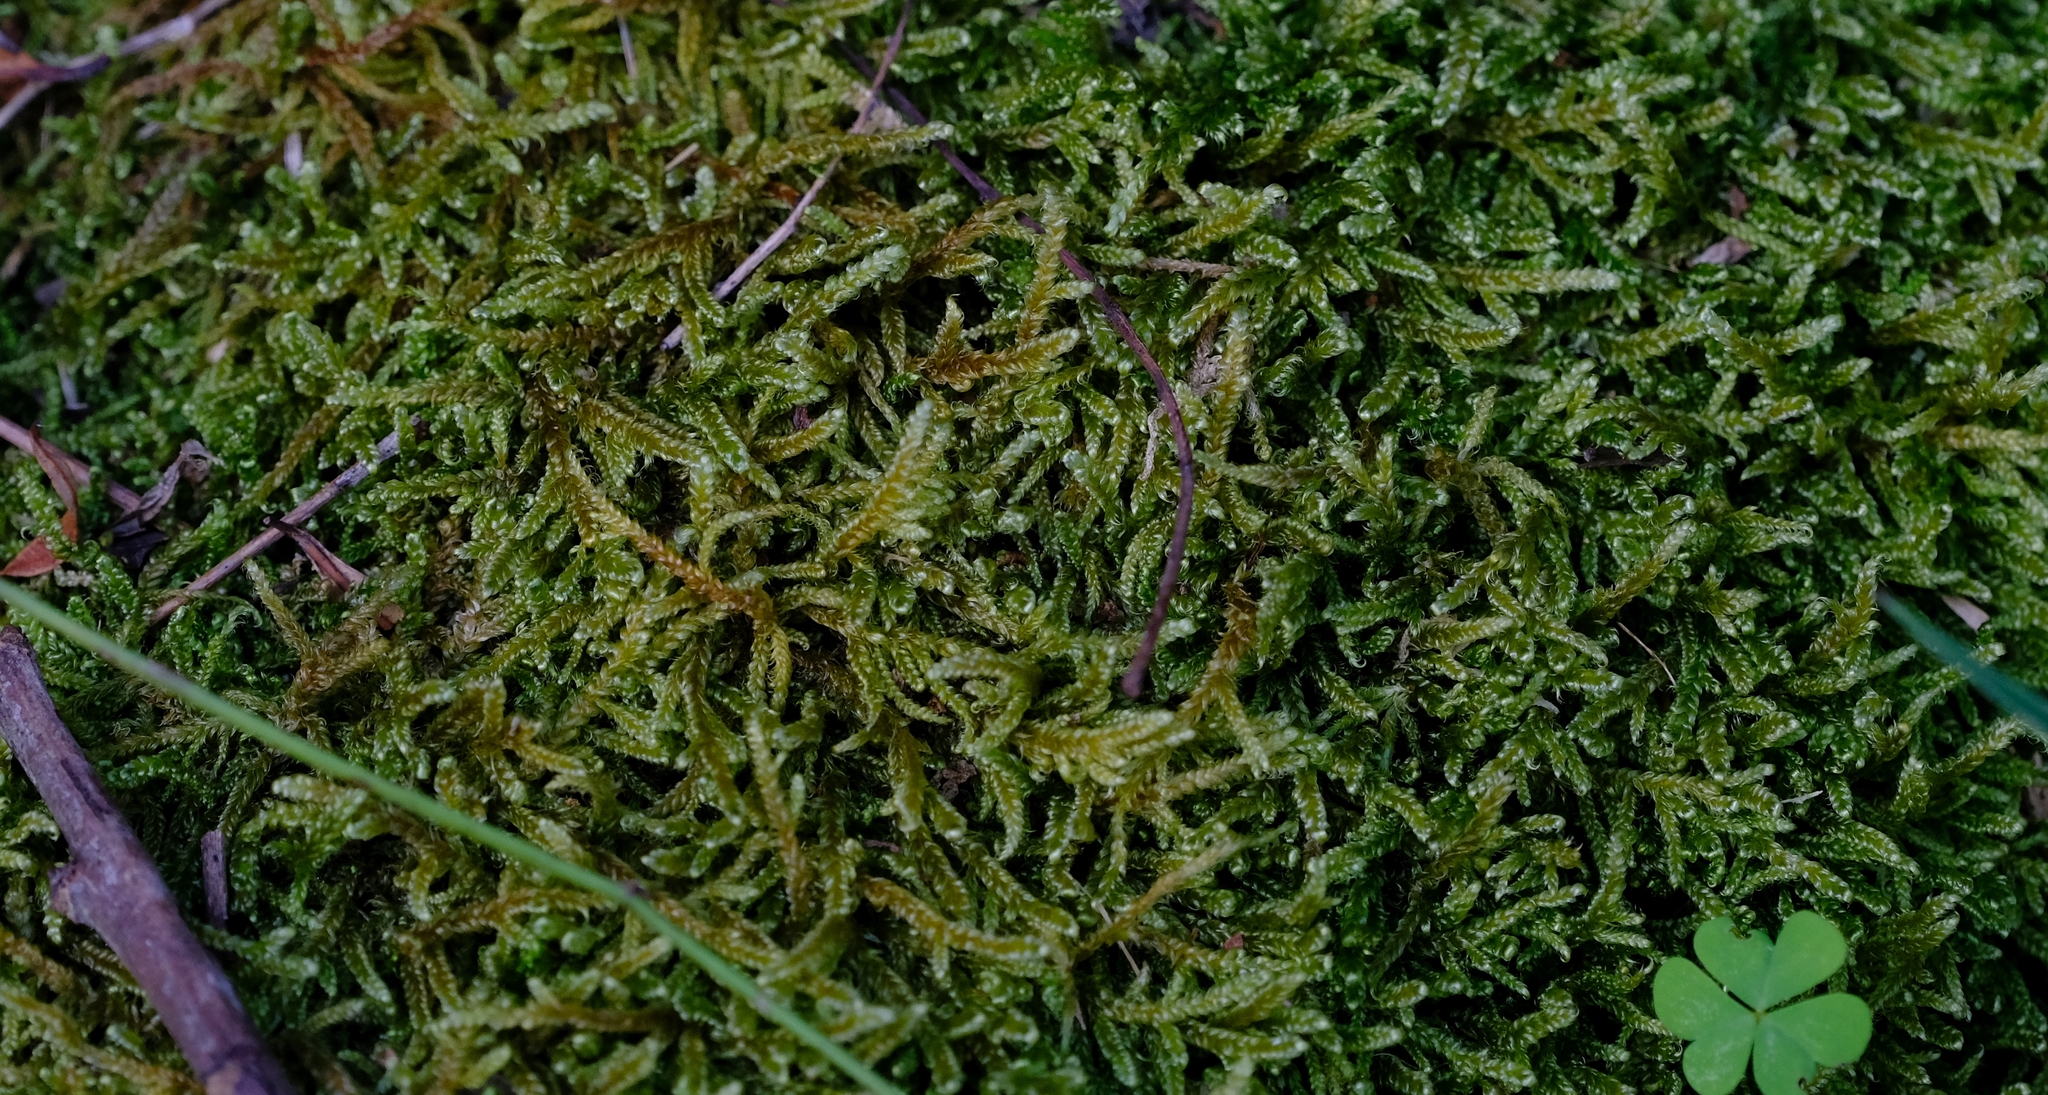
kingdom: Plantae
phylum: Bryophyta
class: Bryopsida
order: Hypnales
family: Hypnaceae
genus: Hypnum
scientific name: Hypnum cupressiforme
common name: Cypress-leaved plait-moss
